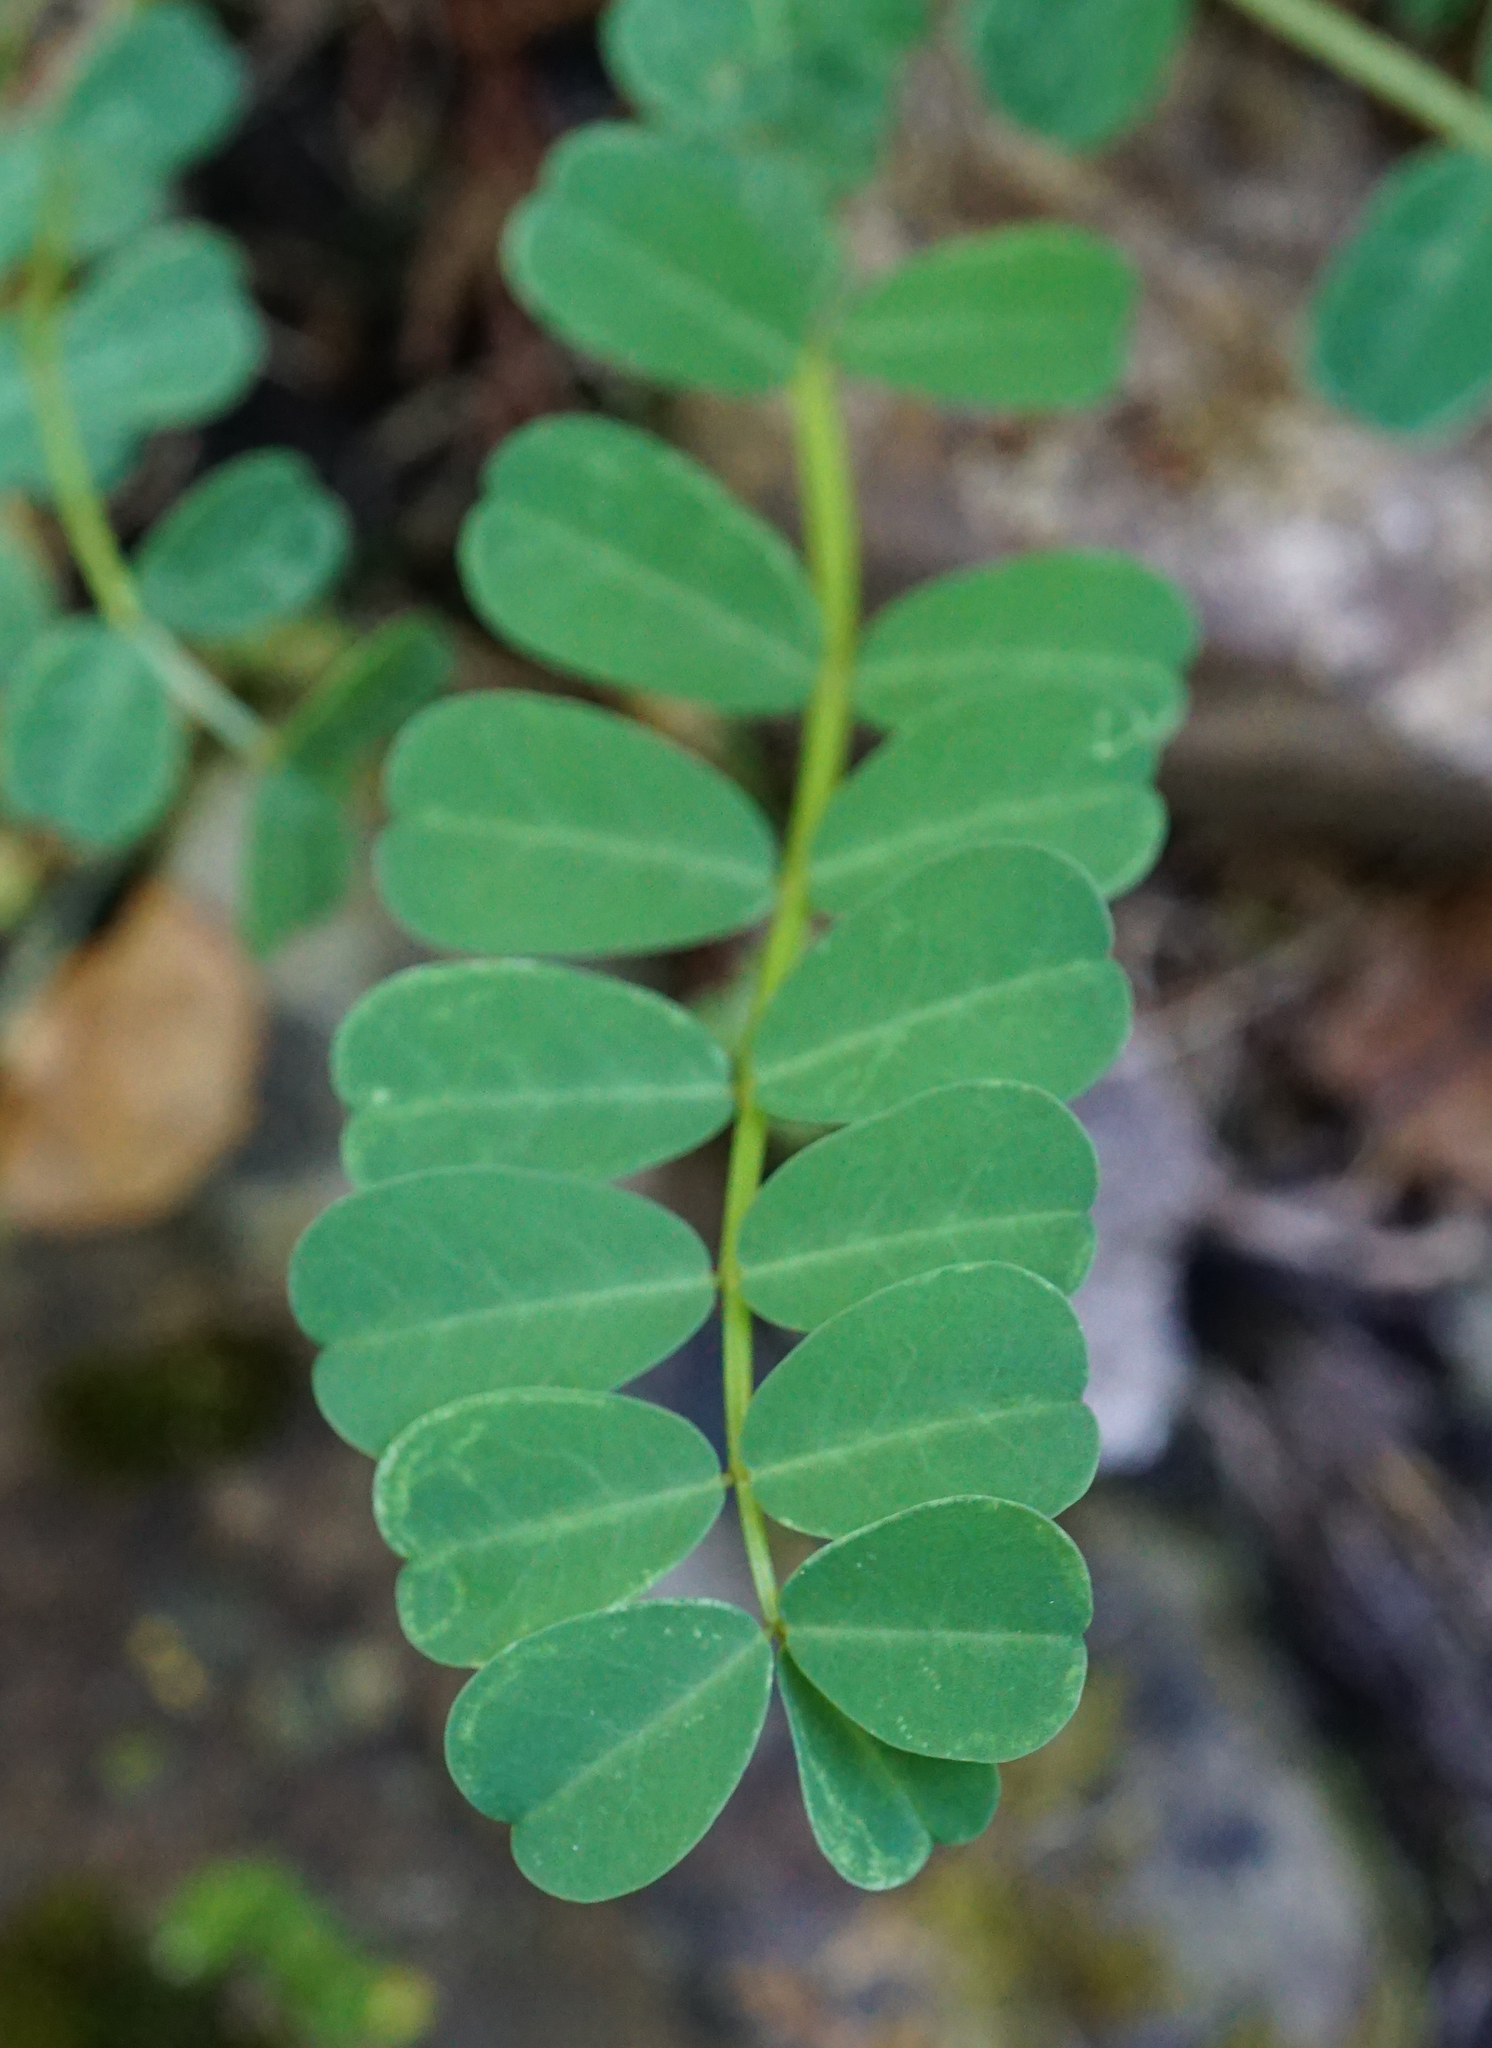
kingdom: Plantae
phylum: Tracheophyta
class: Magnoliopsida
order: Fabales
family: Fabaceae
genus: Coronilla
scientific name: Coronilla varia
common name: Crownvetch
